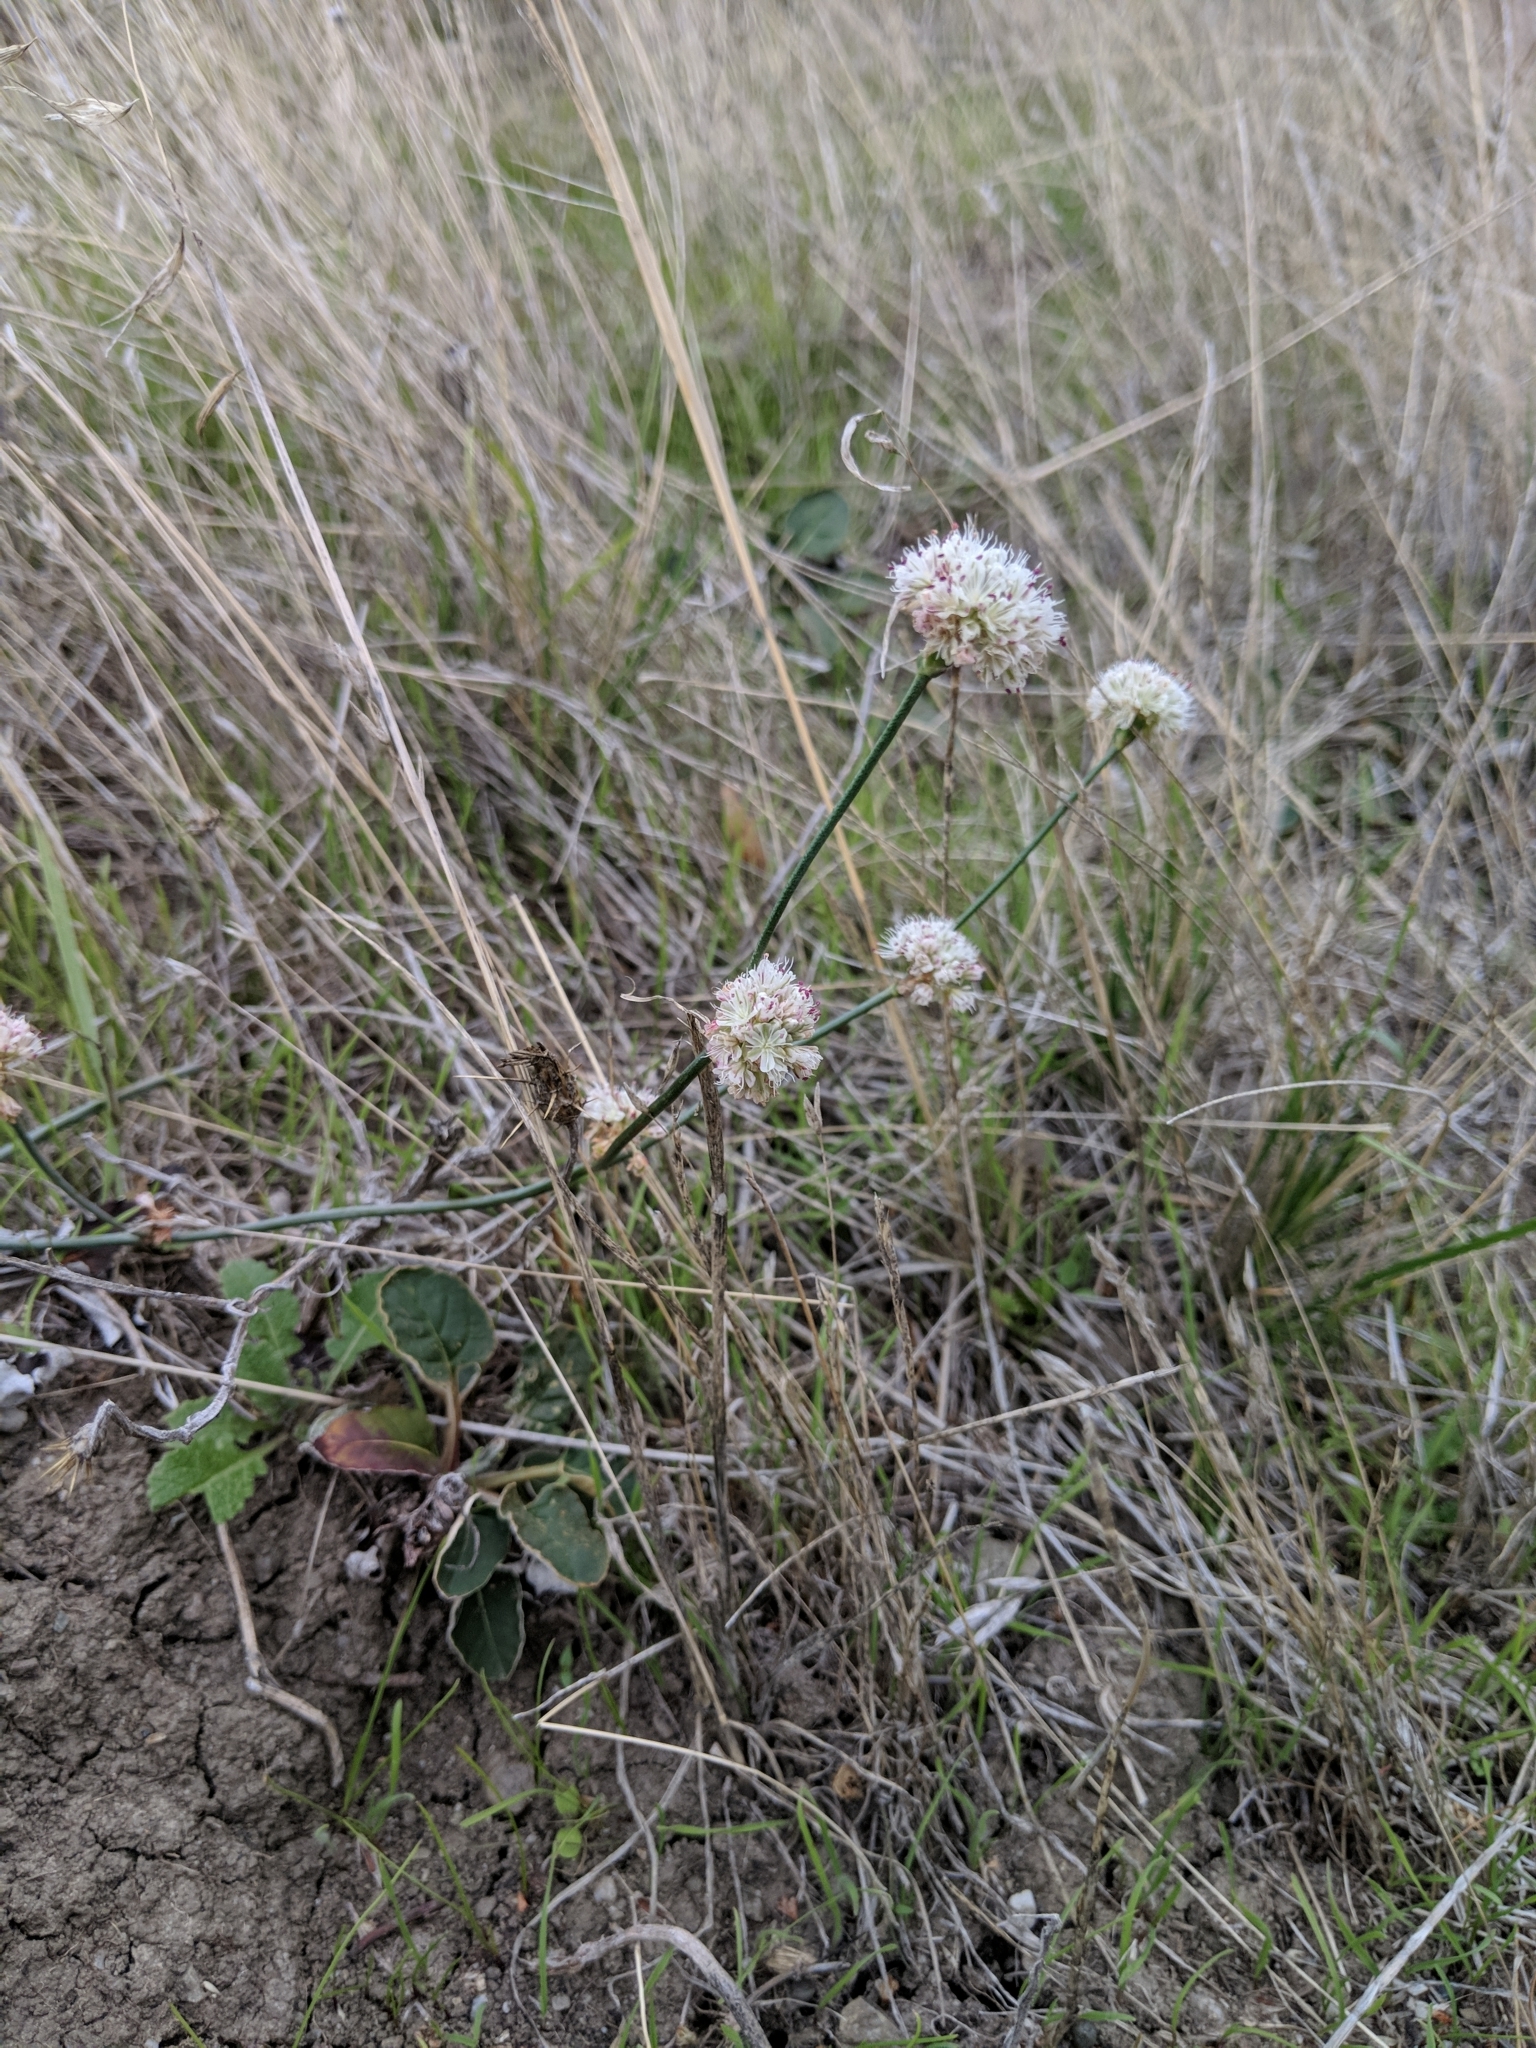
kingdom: Plantae
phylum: Tracheophyta
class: Magnoliopsida
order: Caryophyllales
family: Polygonaceae
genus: Eriogonum
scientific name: Eriogonum nudum
